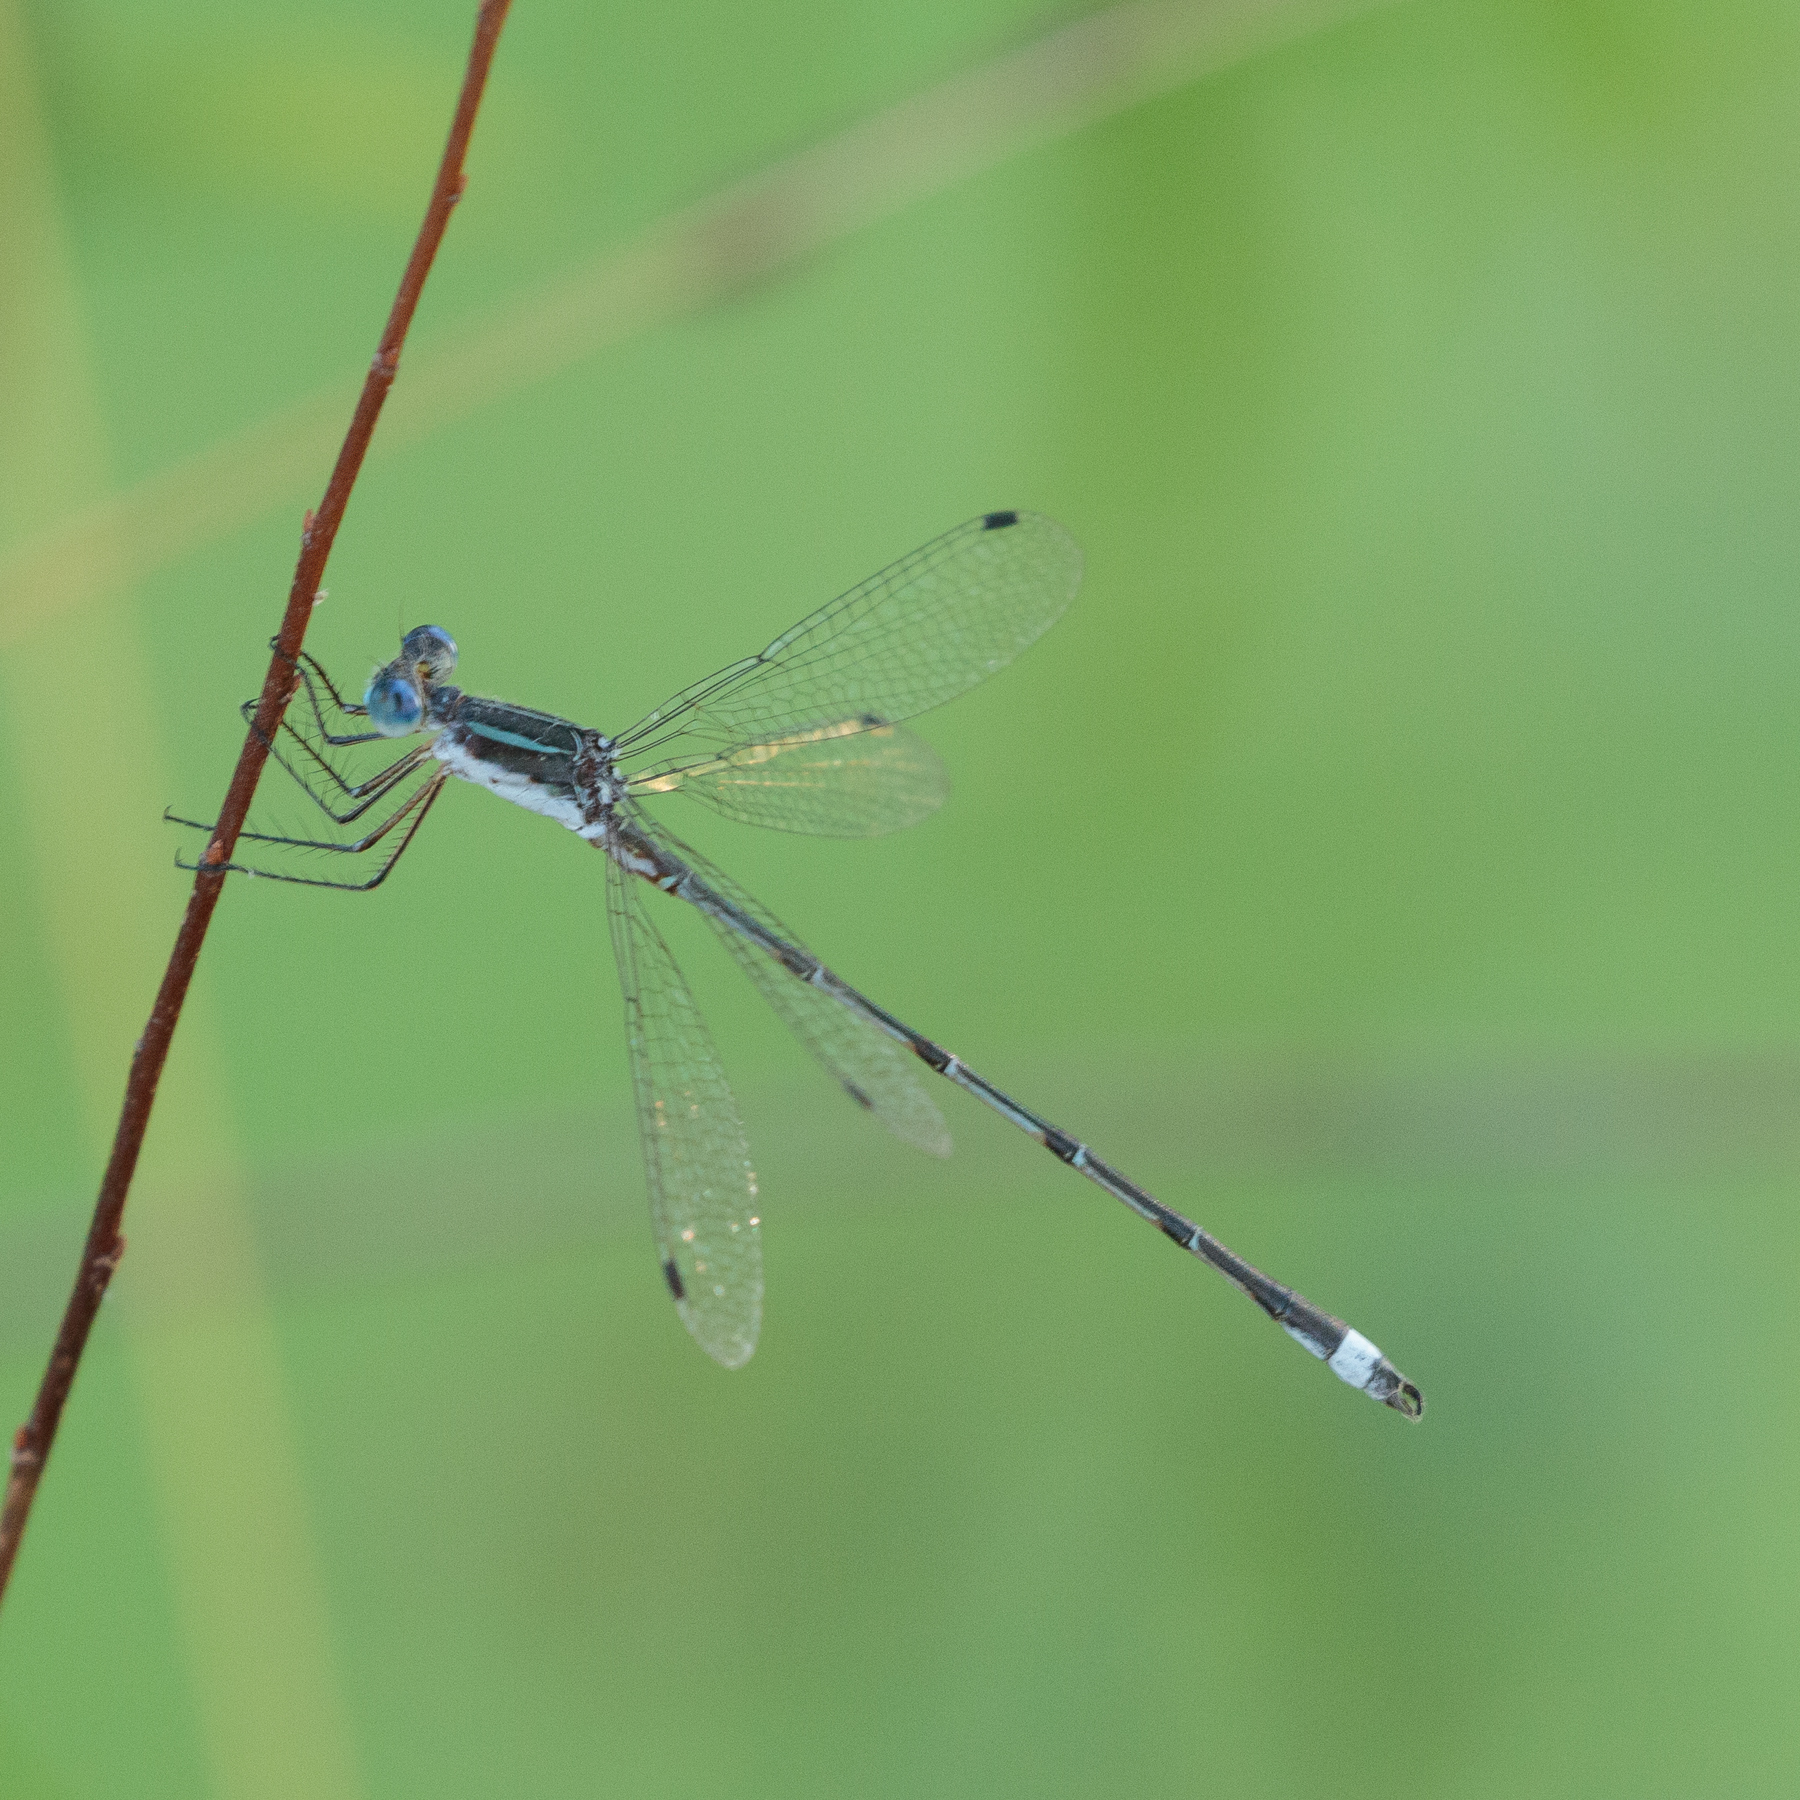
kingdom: Animalia
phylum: Arthropoda
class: Insecta
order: Odonata
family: Lestidae
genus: Lestes
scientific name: Lestes australis
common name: Southern spreadwing
